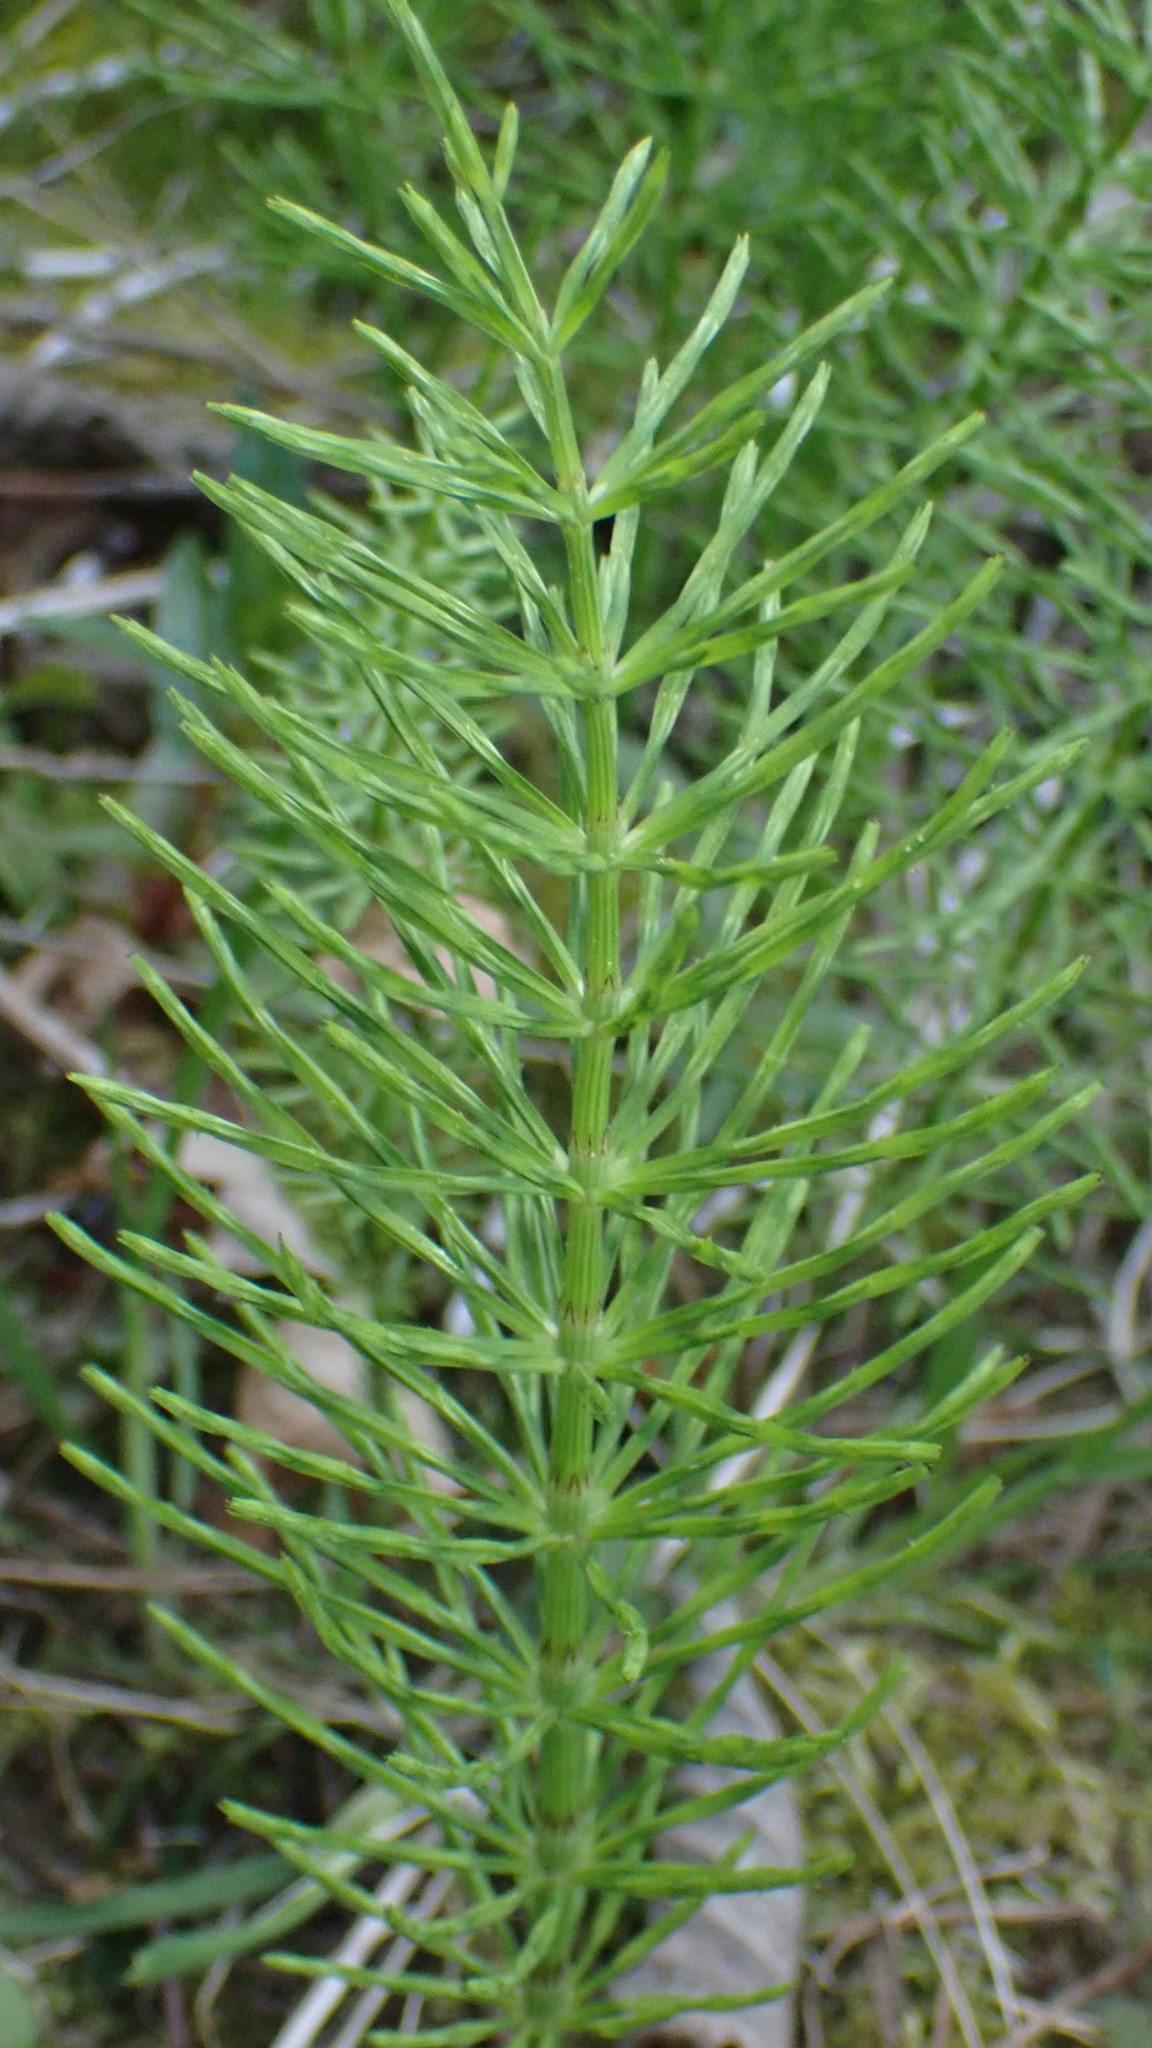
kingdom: Plantae
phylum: Tracheophyta
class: Polypodiopsida
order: Equisetales
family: Equisetaceae
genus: Equisetum
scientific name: Equisetum arvense
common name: Field horsetail
